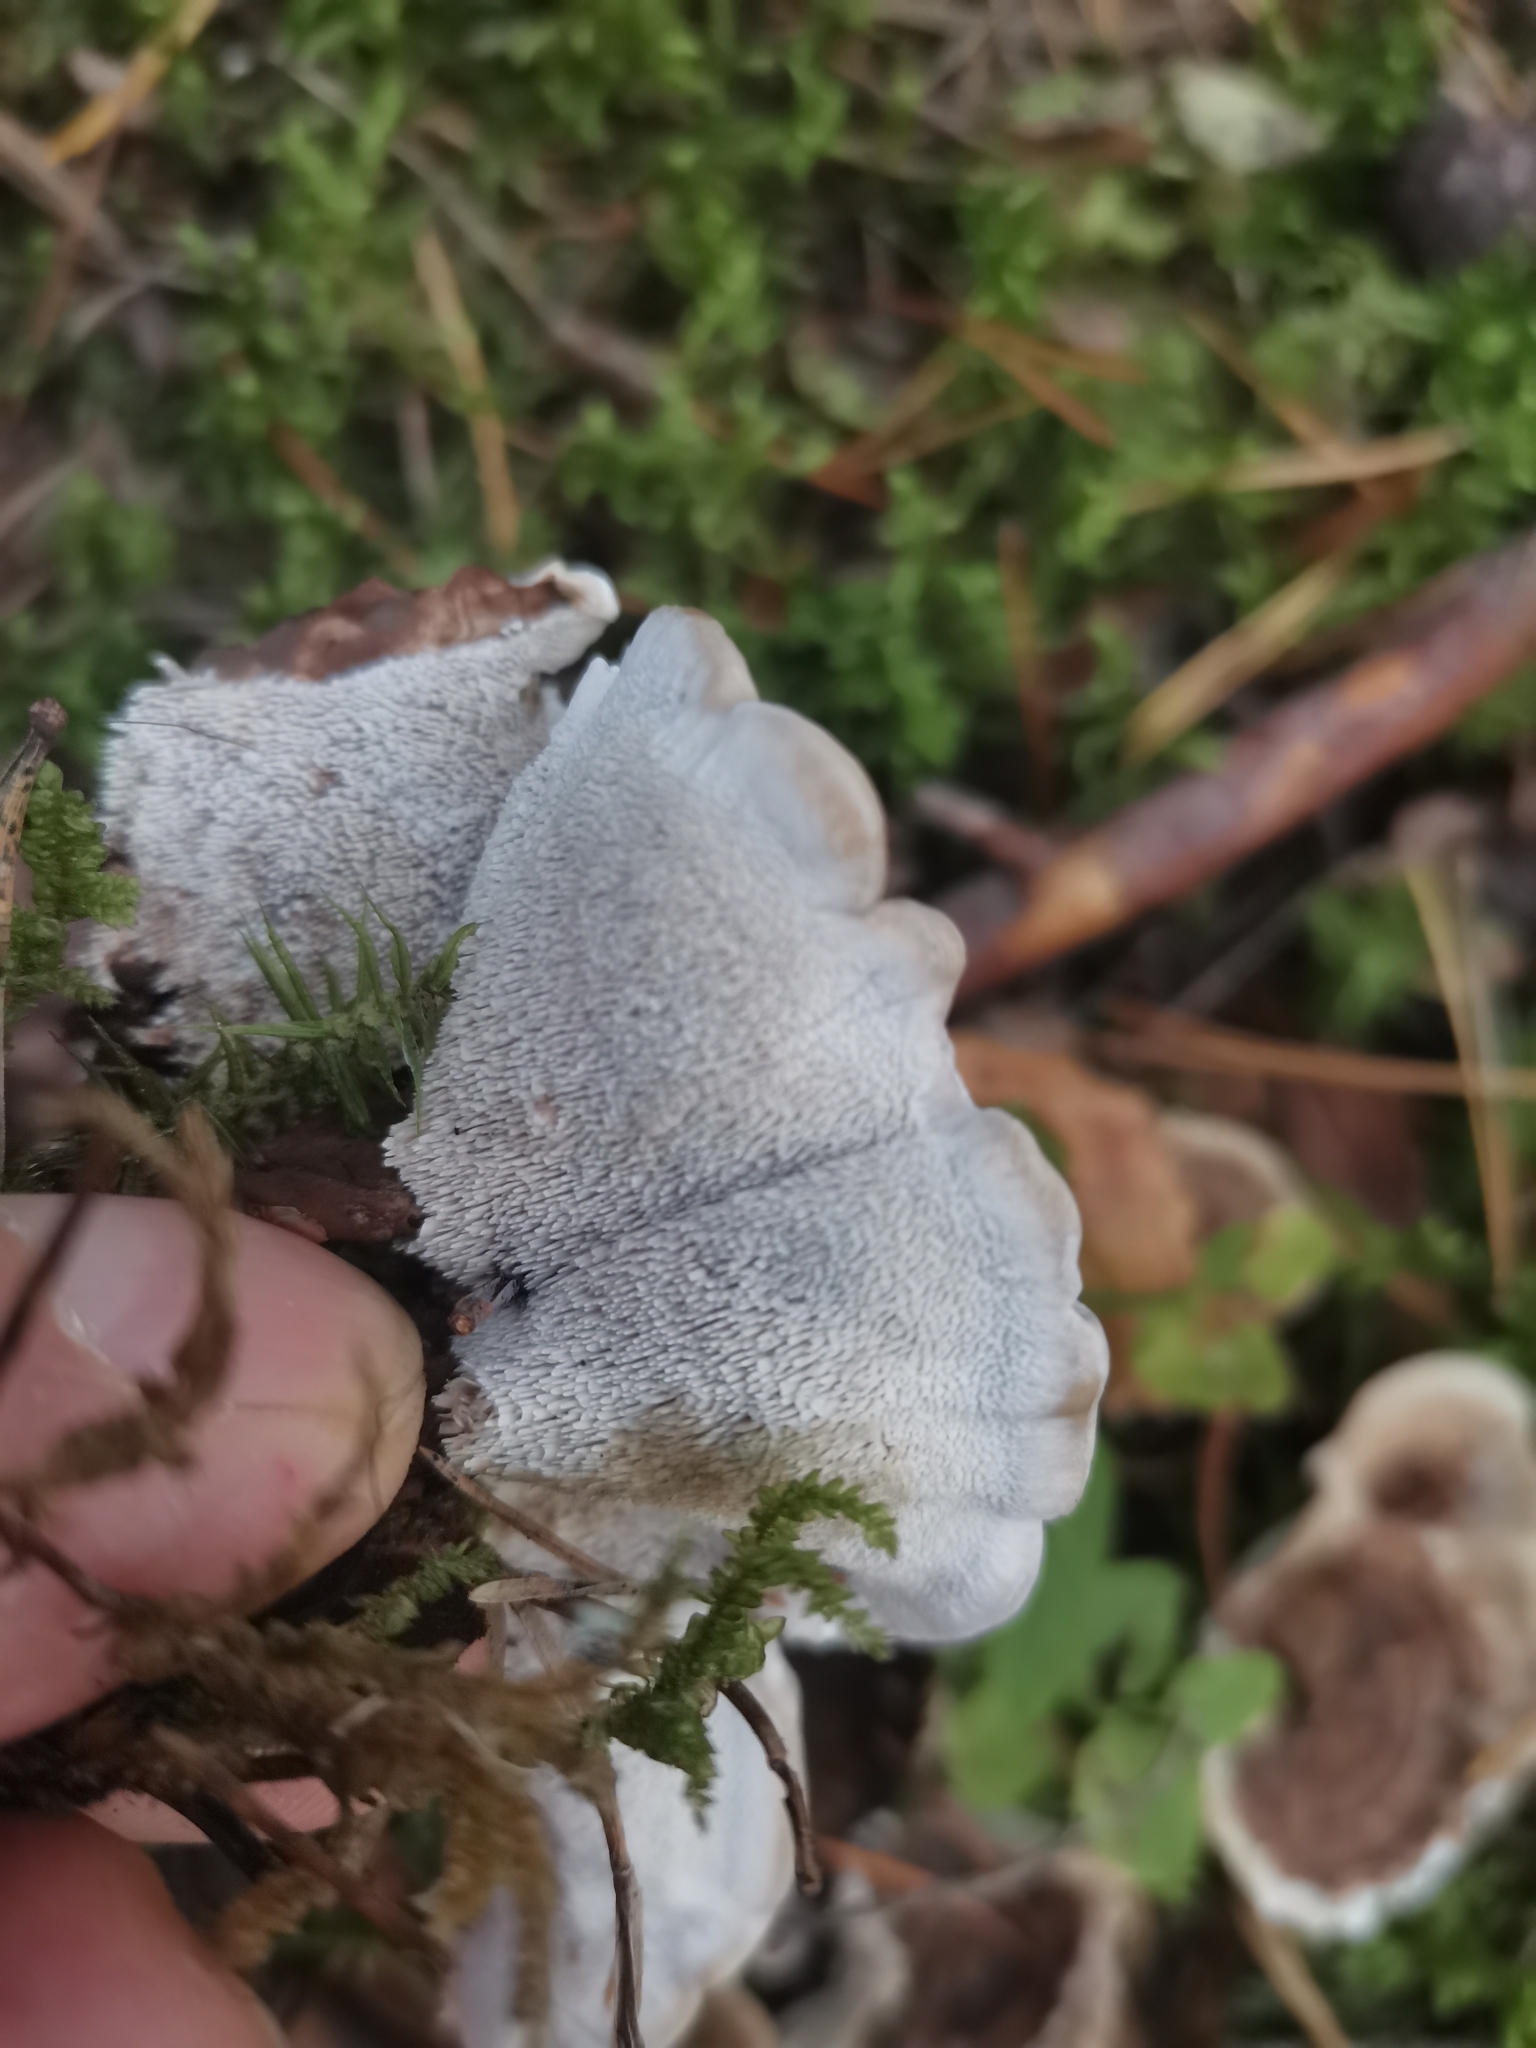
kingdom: Fungi
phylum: Basidiomycota
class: Agaricomycetes
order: Thelephorales
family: Thelephoraceae
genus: Phellodon
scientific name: Phellodon tomentosus
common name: Woolly tooth
